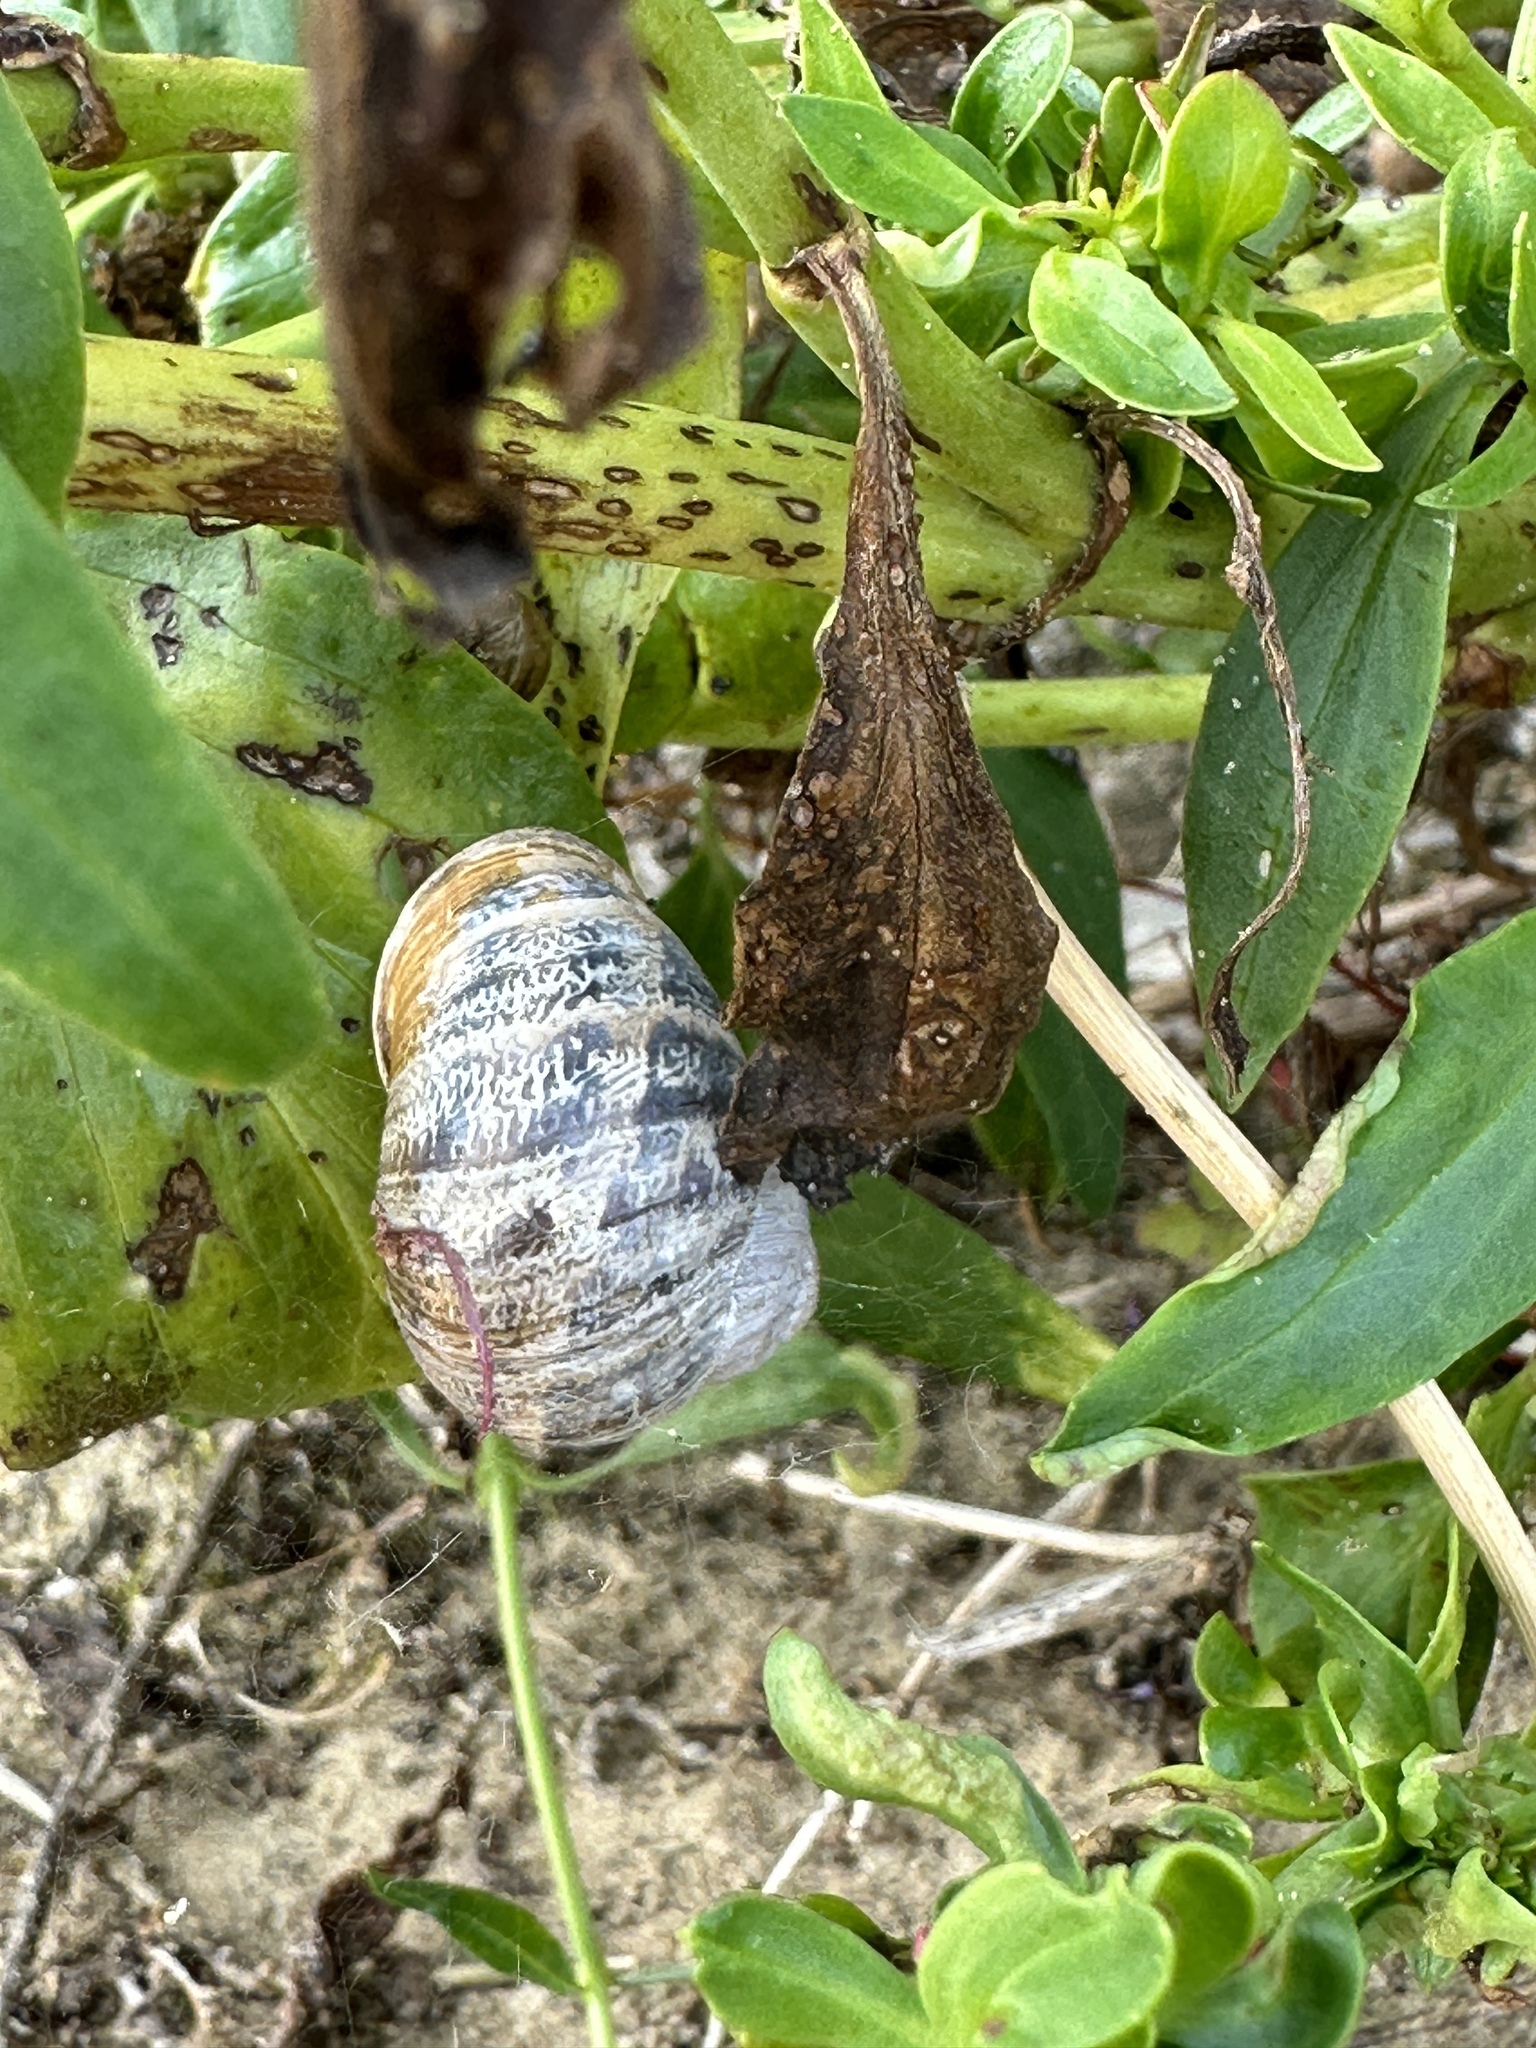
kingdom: Animalia
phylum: Mollusca
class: Gastropoda
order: Stylommatophora
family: Helicidae
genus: Cornu
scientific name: Cornu aspersum
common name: Brown garden snail
